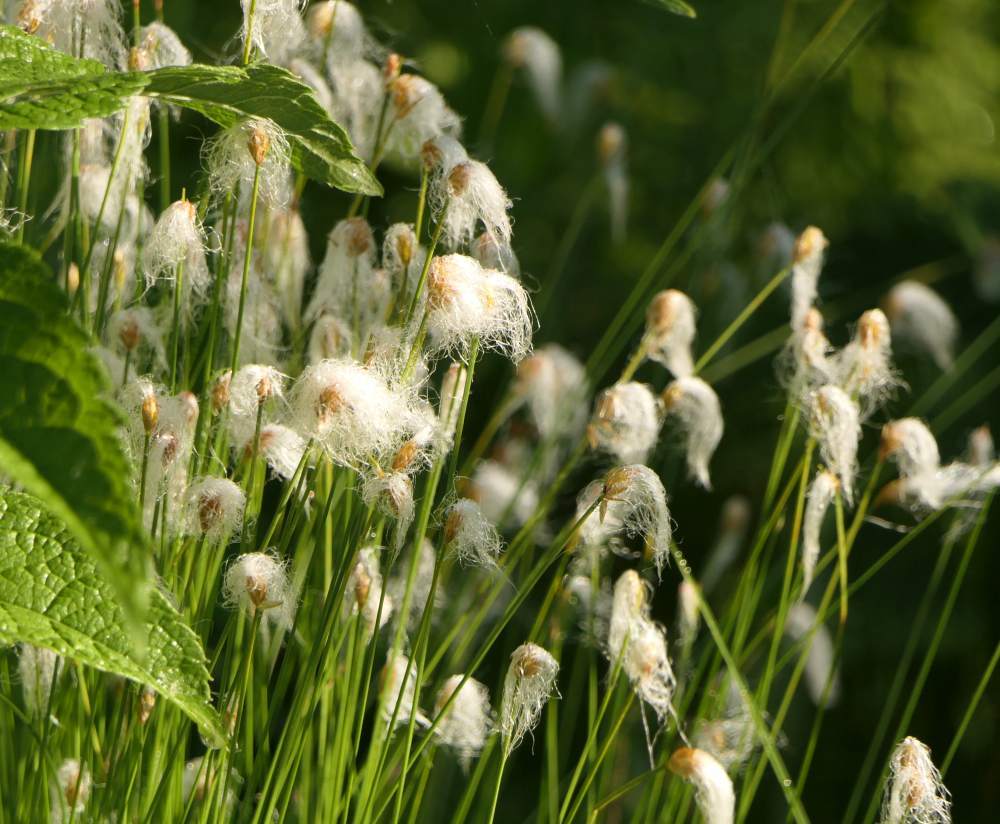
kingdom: Plantae
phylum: Tracheophyta
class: Liliopsida
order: Poales
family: Cyperaceae
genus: Trichophorum
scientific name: Trichophorum alpinum
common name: Alpine bulrush
